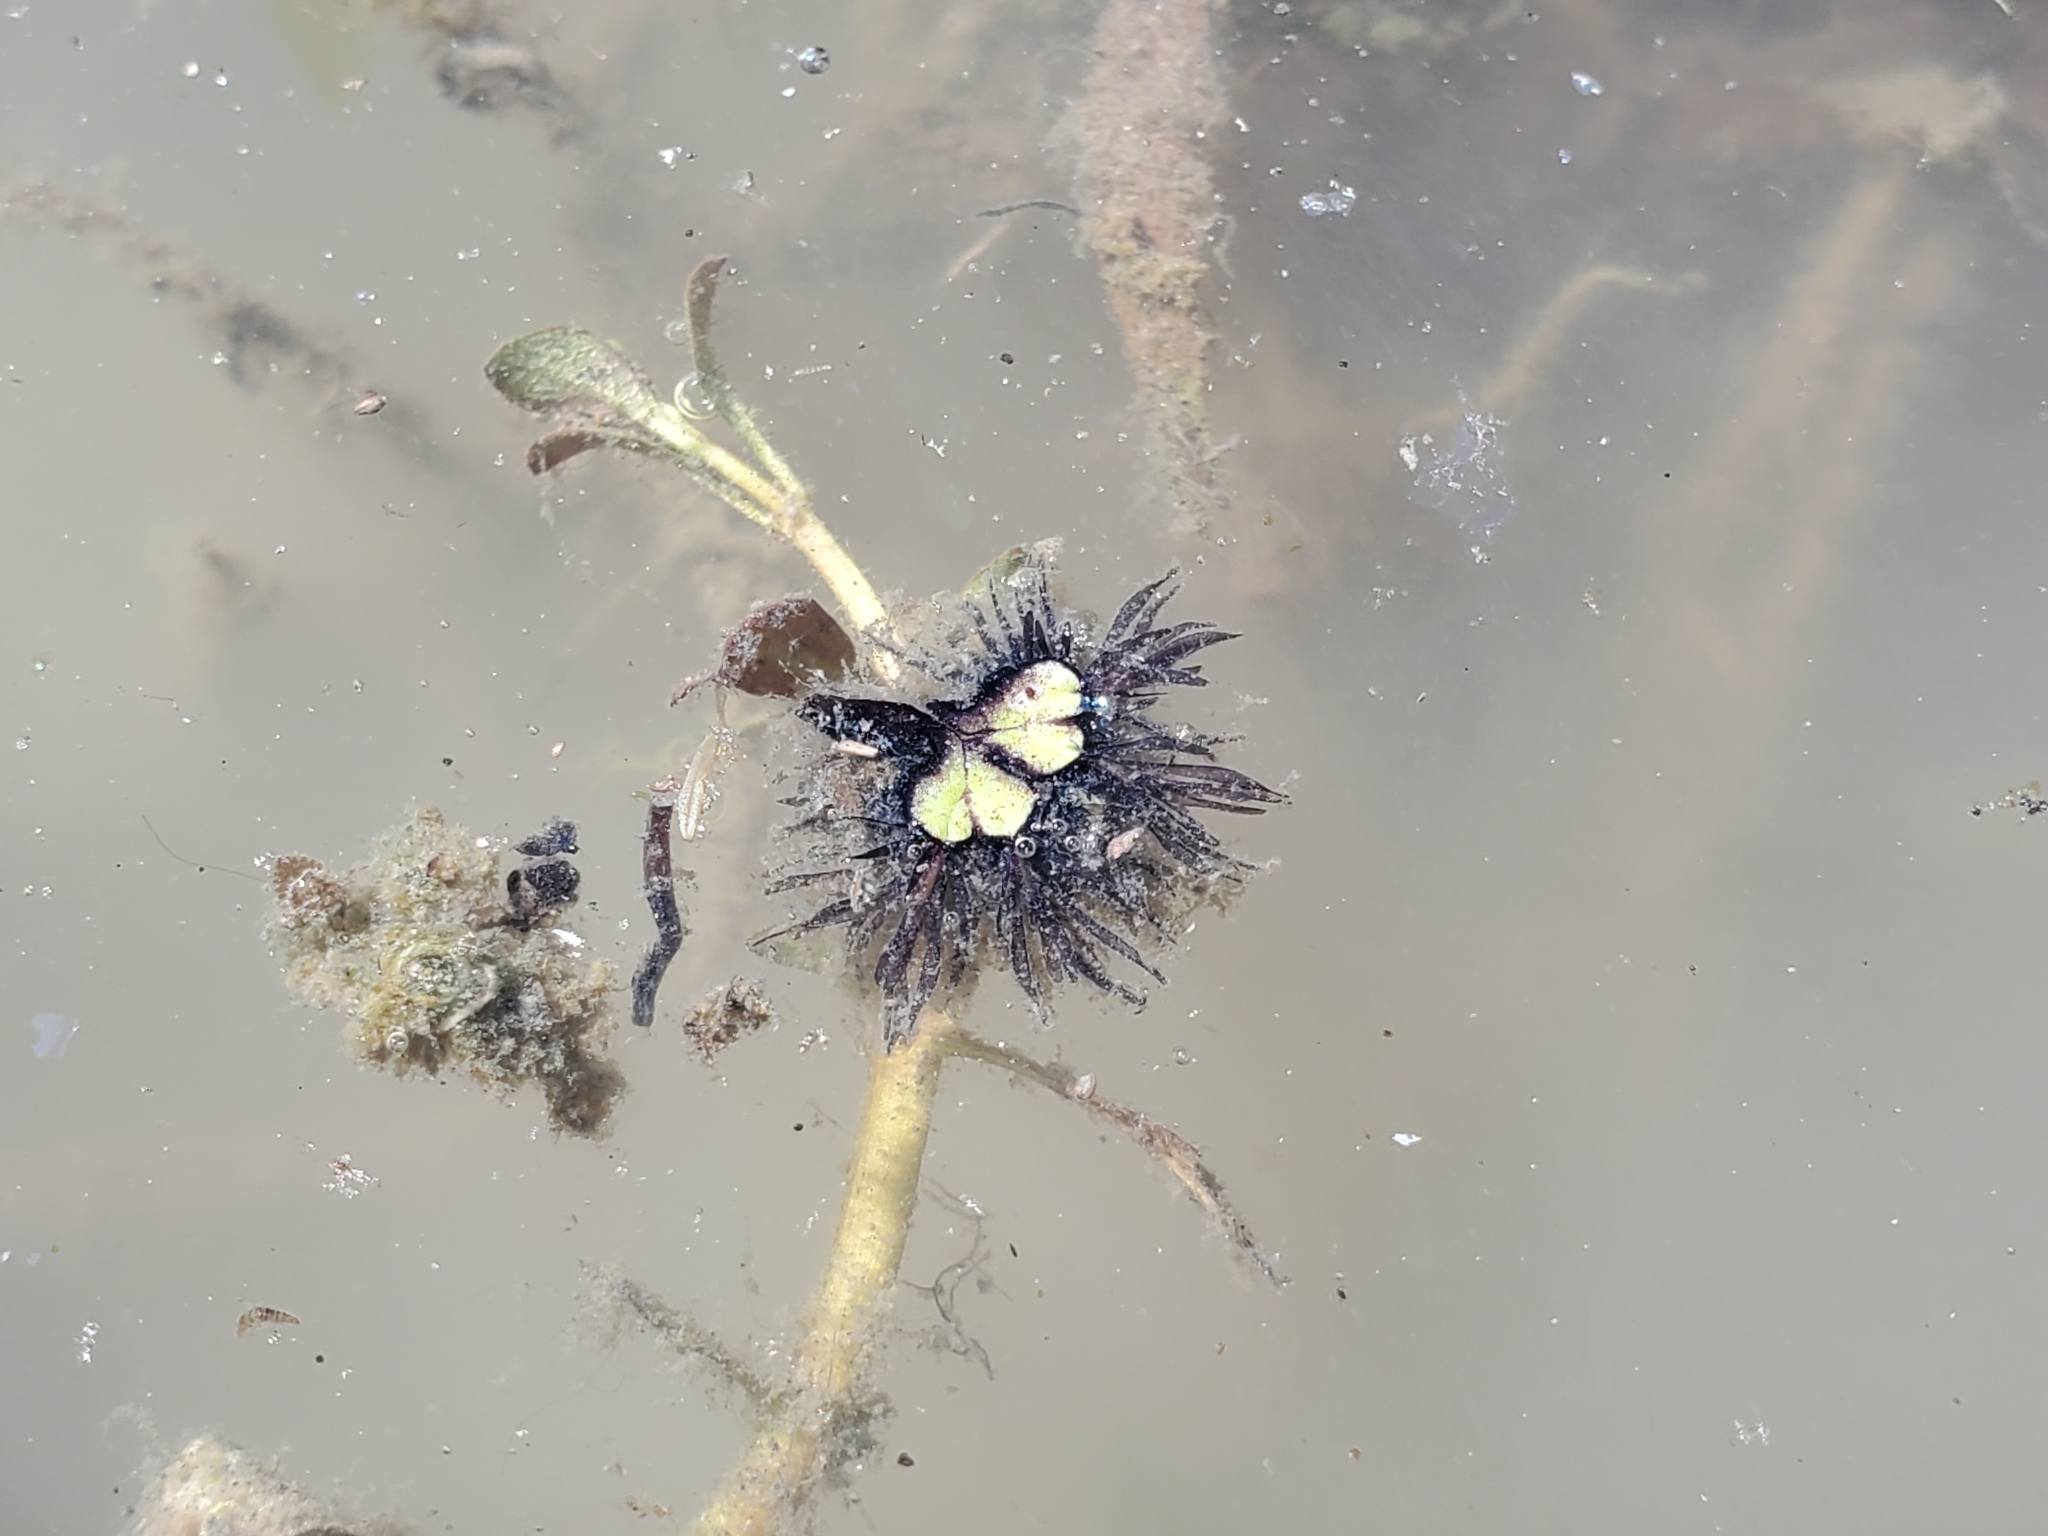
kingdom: Plantae
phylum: Marchantiophyta
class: Marchantiopsida
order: Marchantiales
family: Ricciaceae
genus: Ricciocarpos
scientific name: Ricciocarpos natans
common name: Purple-fringed liverwort
